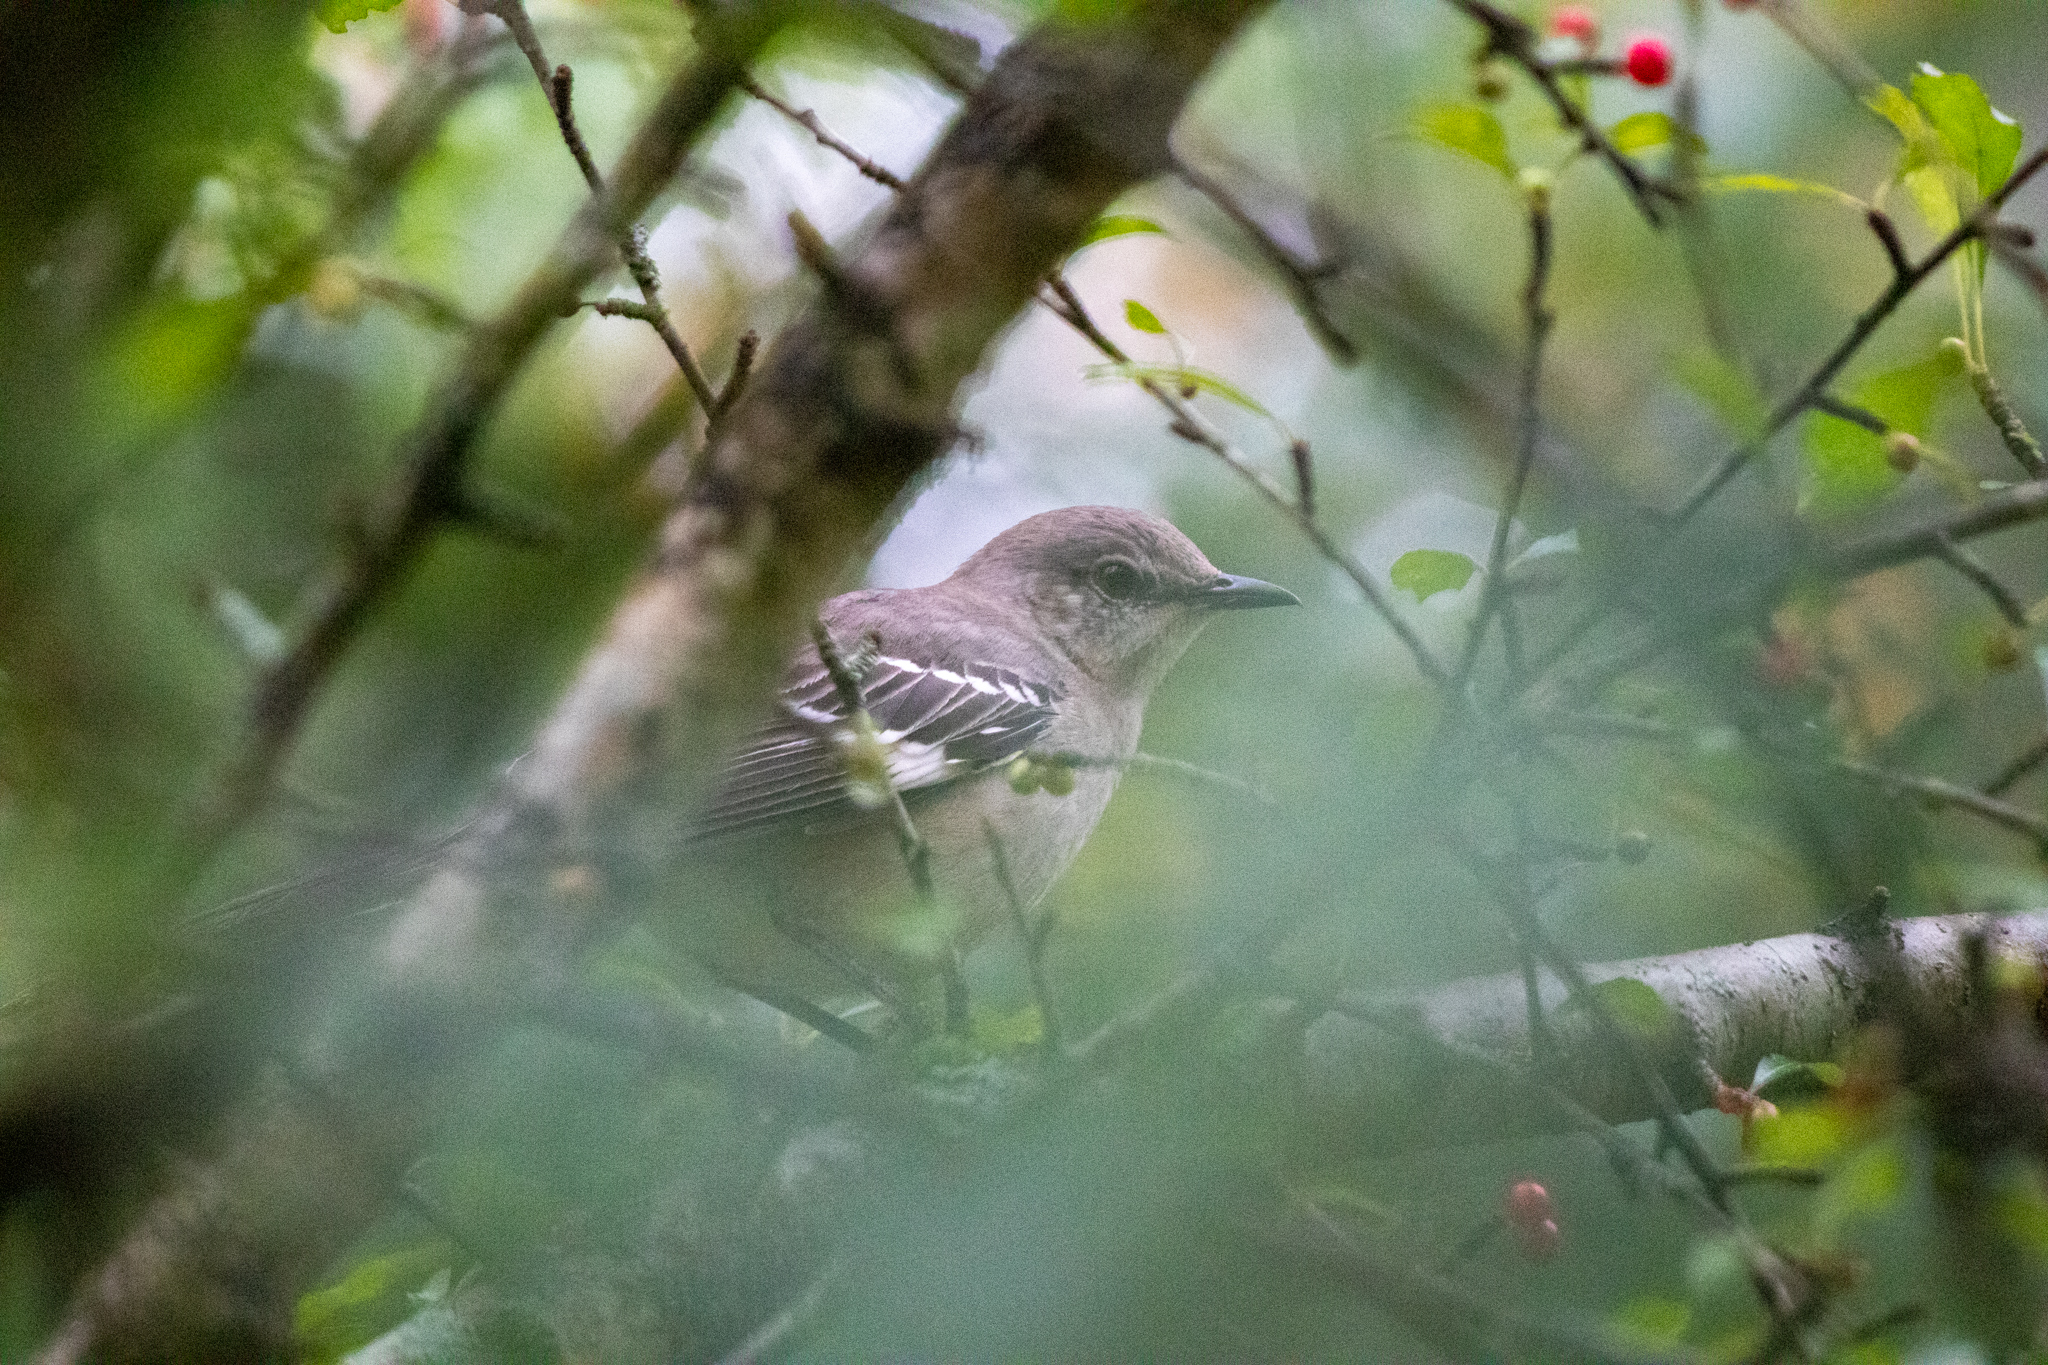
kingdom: Animalia
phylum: Chordata
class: Aves
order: Passeriformes
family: Mimidae
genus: Mimus
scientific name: Mimus polyglottos
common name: Northern mockingbird
